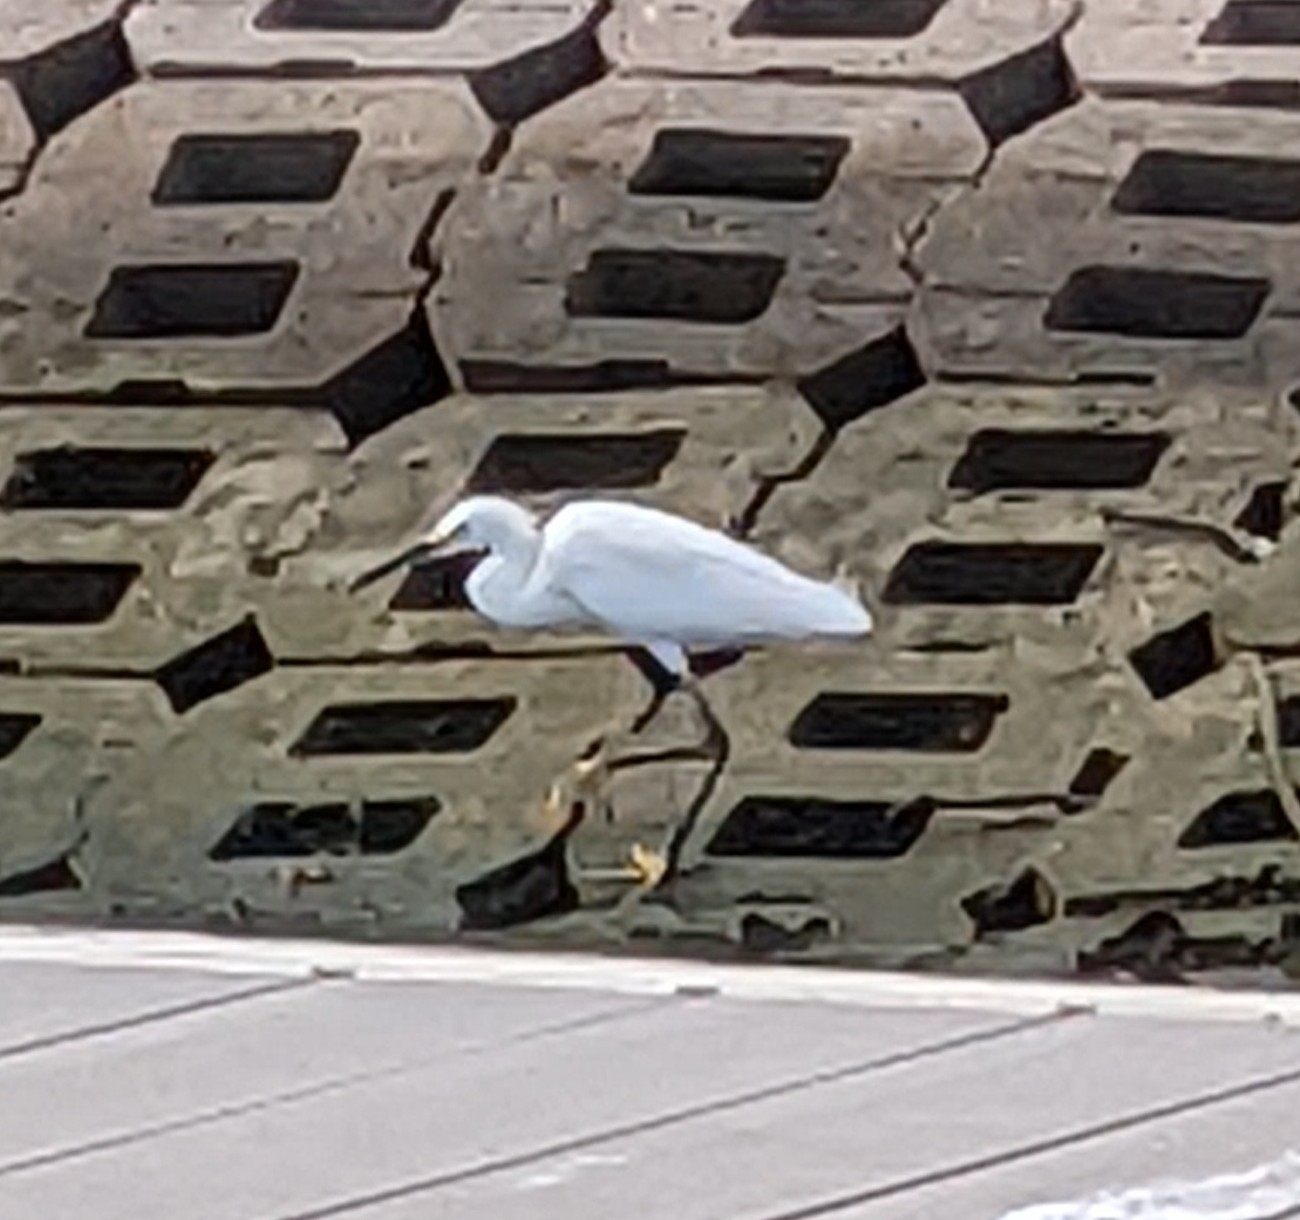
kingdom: Animalia
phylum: Chordata
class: Aves
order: Pelecaniformes
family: Ardeidae
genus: Egretta
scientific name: Egretta thula
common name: Snowy egret
